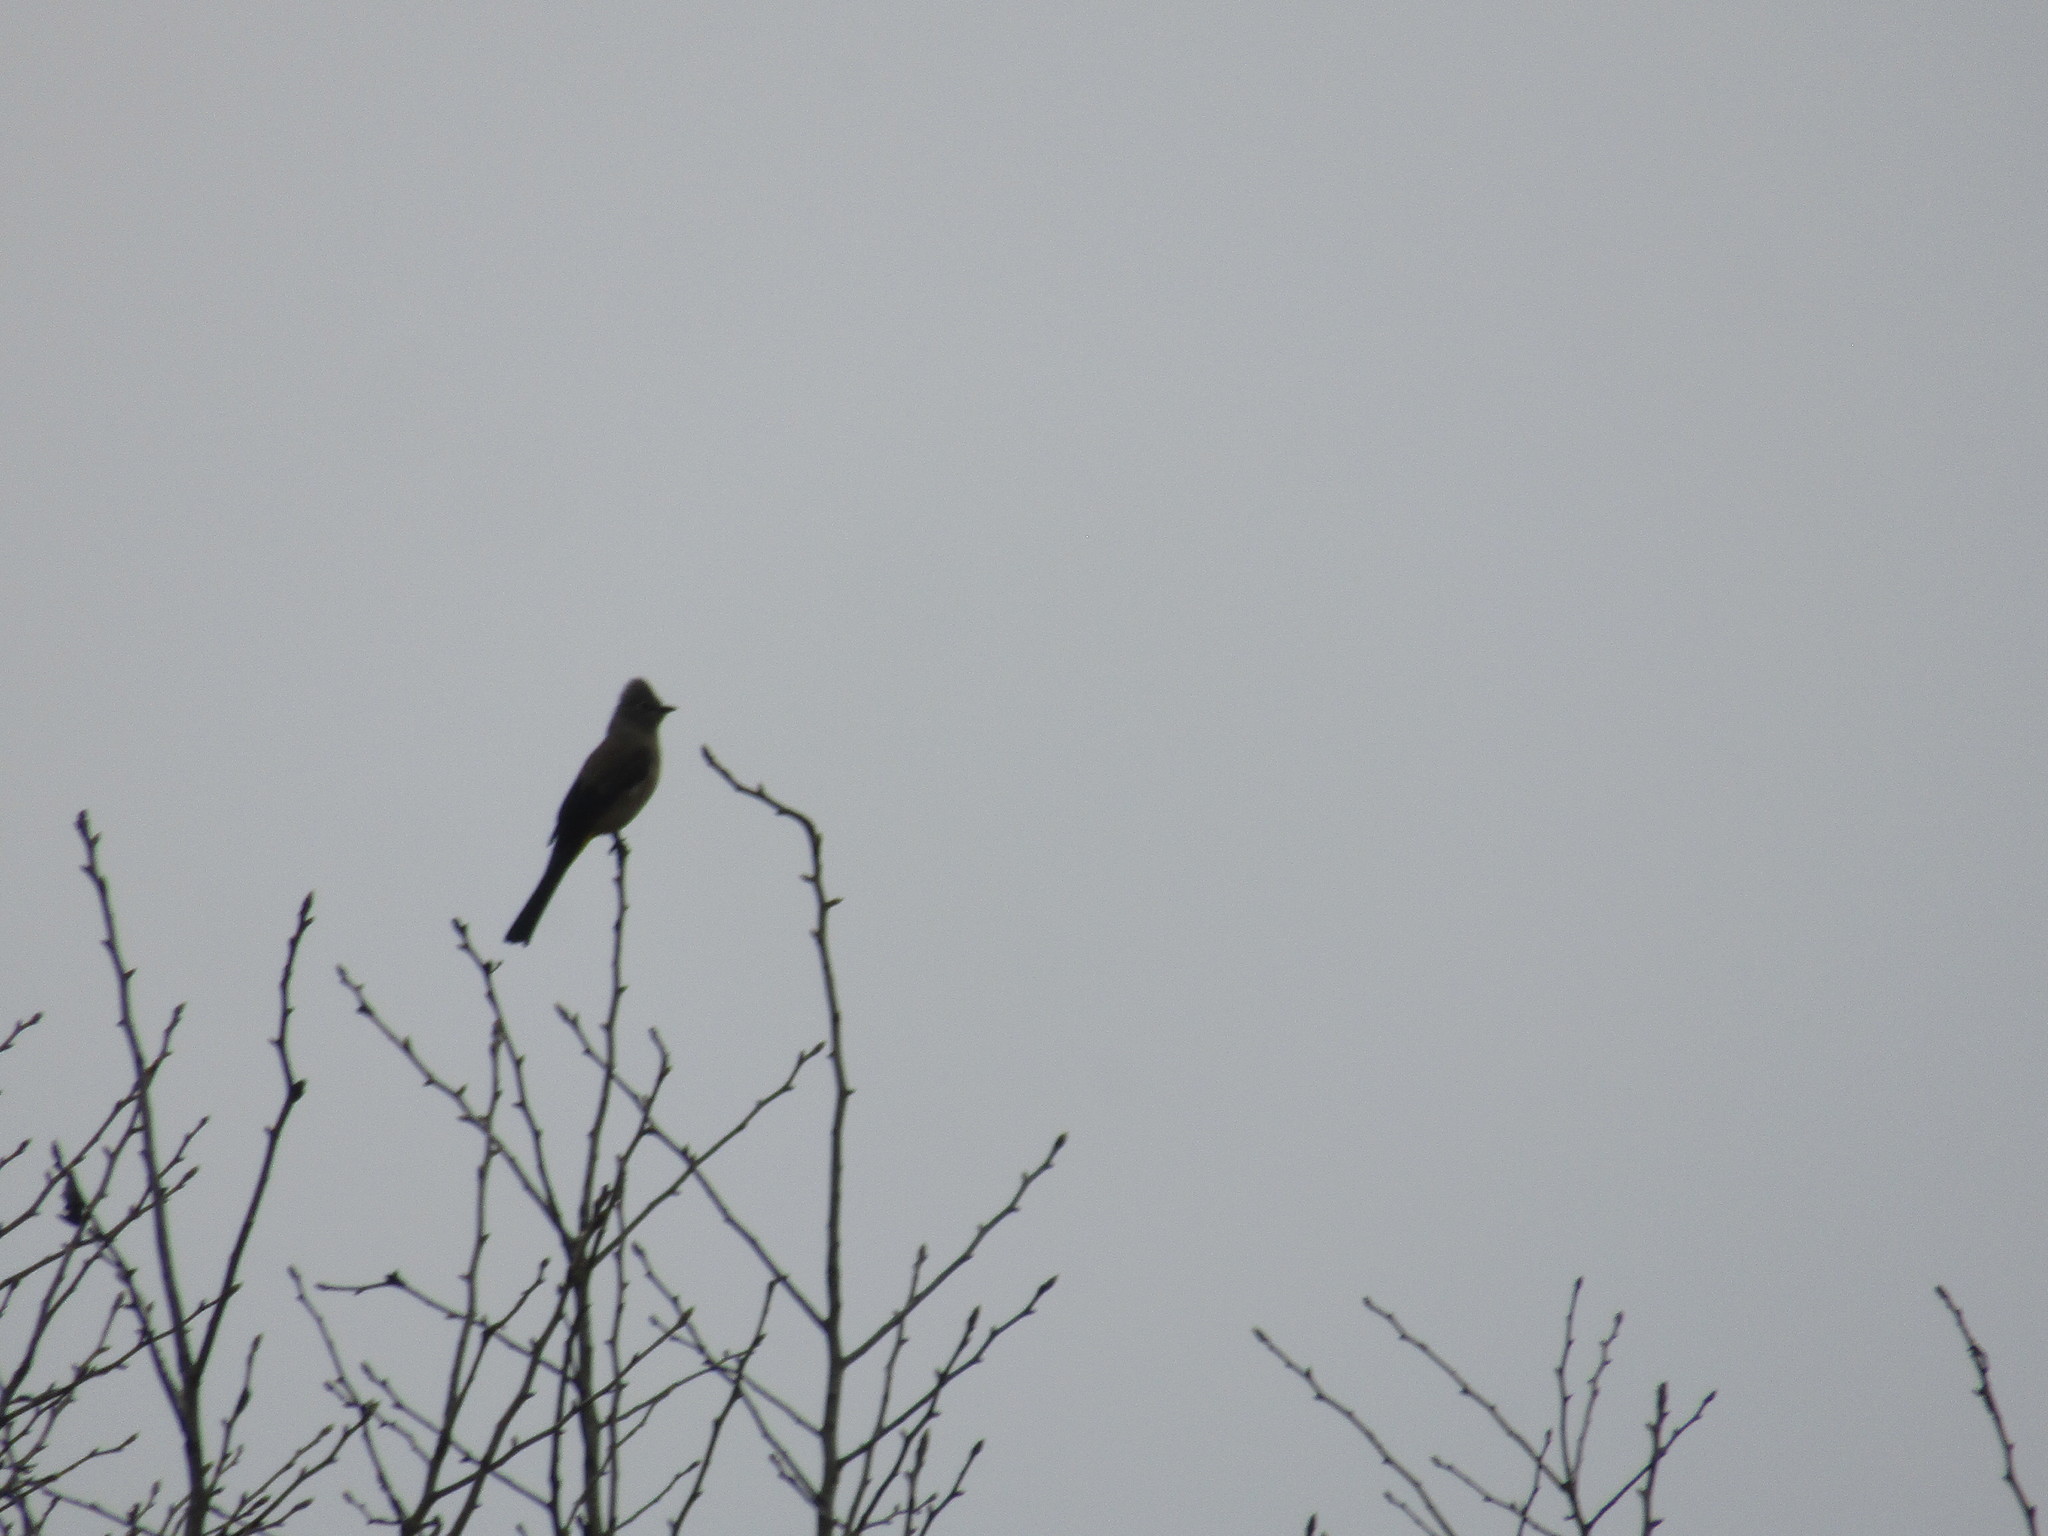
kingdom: Animalia
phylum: Chordata
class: Aves
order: Passeriformes
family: Ptilogonatidae
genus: Ptilogonys
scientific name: Ptilogonys cinereus
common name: Gray silky-flycatcher
